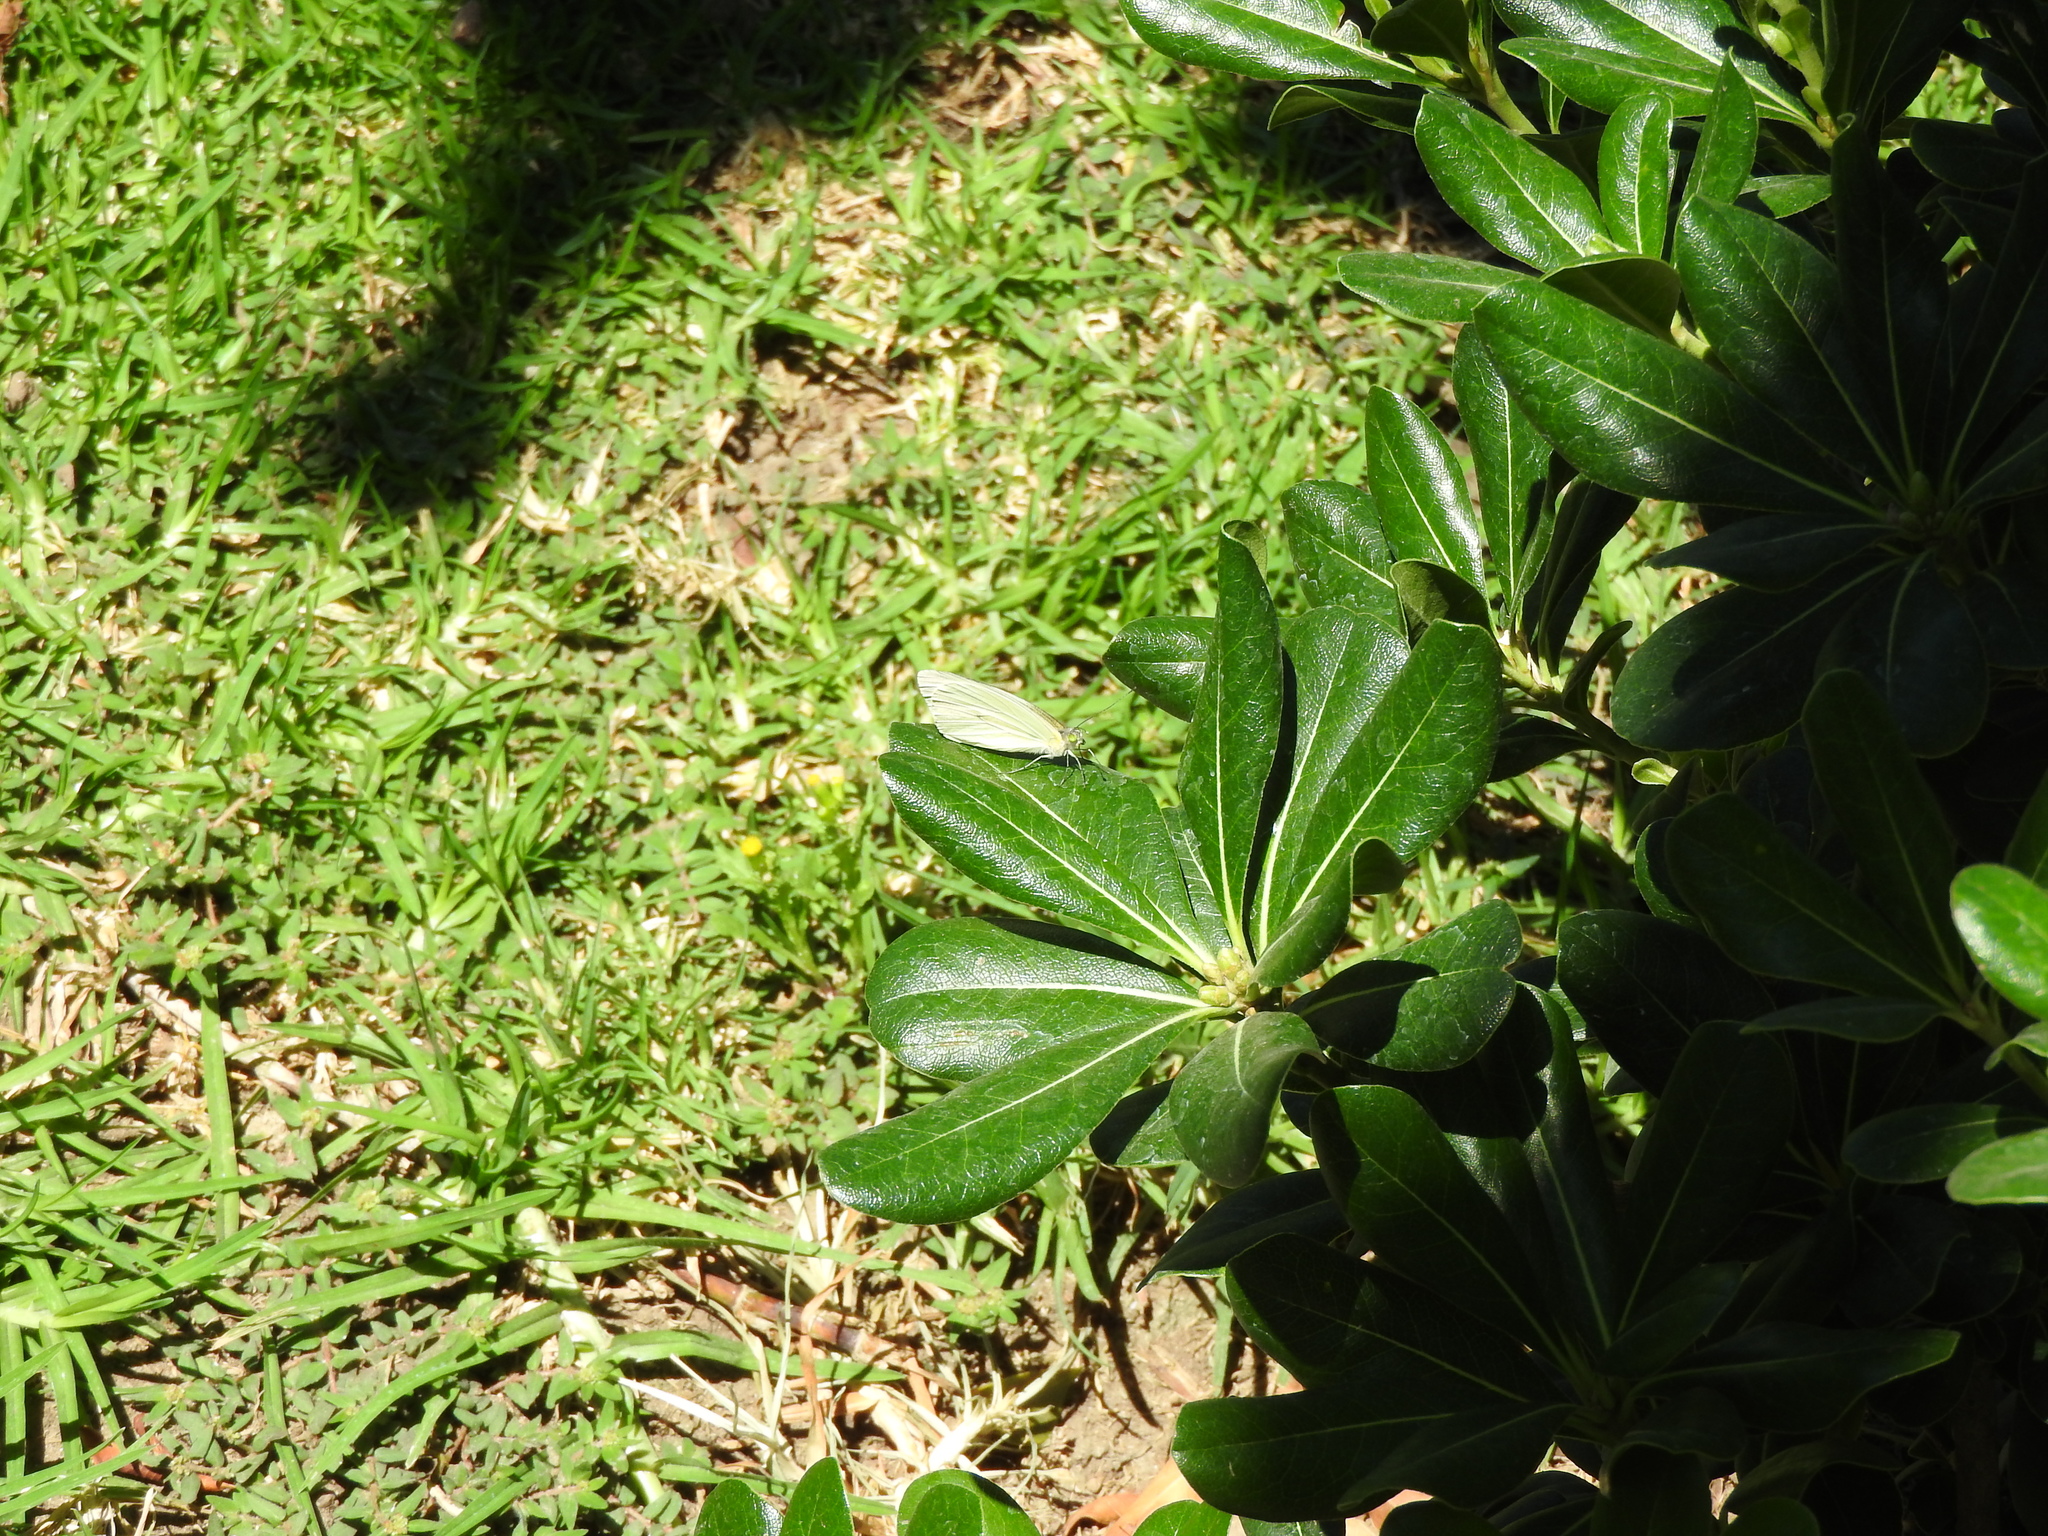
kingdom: Animalia
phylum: Arthropoda
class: Insecta
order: Lepidoptera
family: Pieridae
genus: Leptophobia
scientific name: Leptophobia aripa
